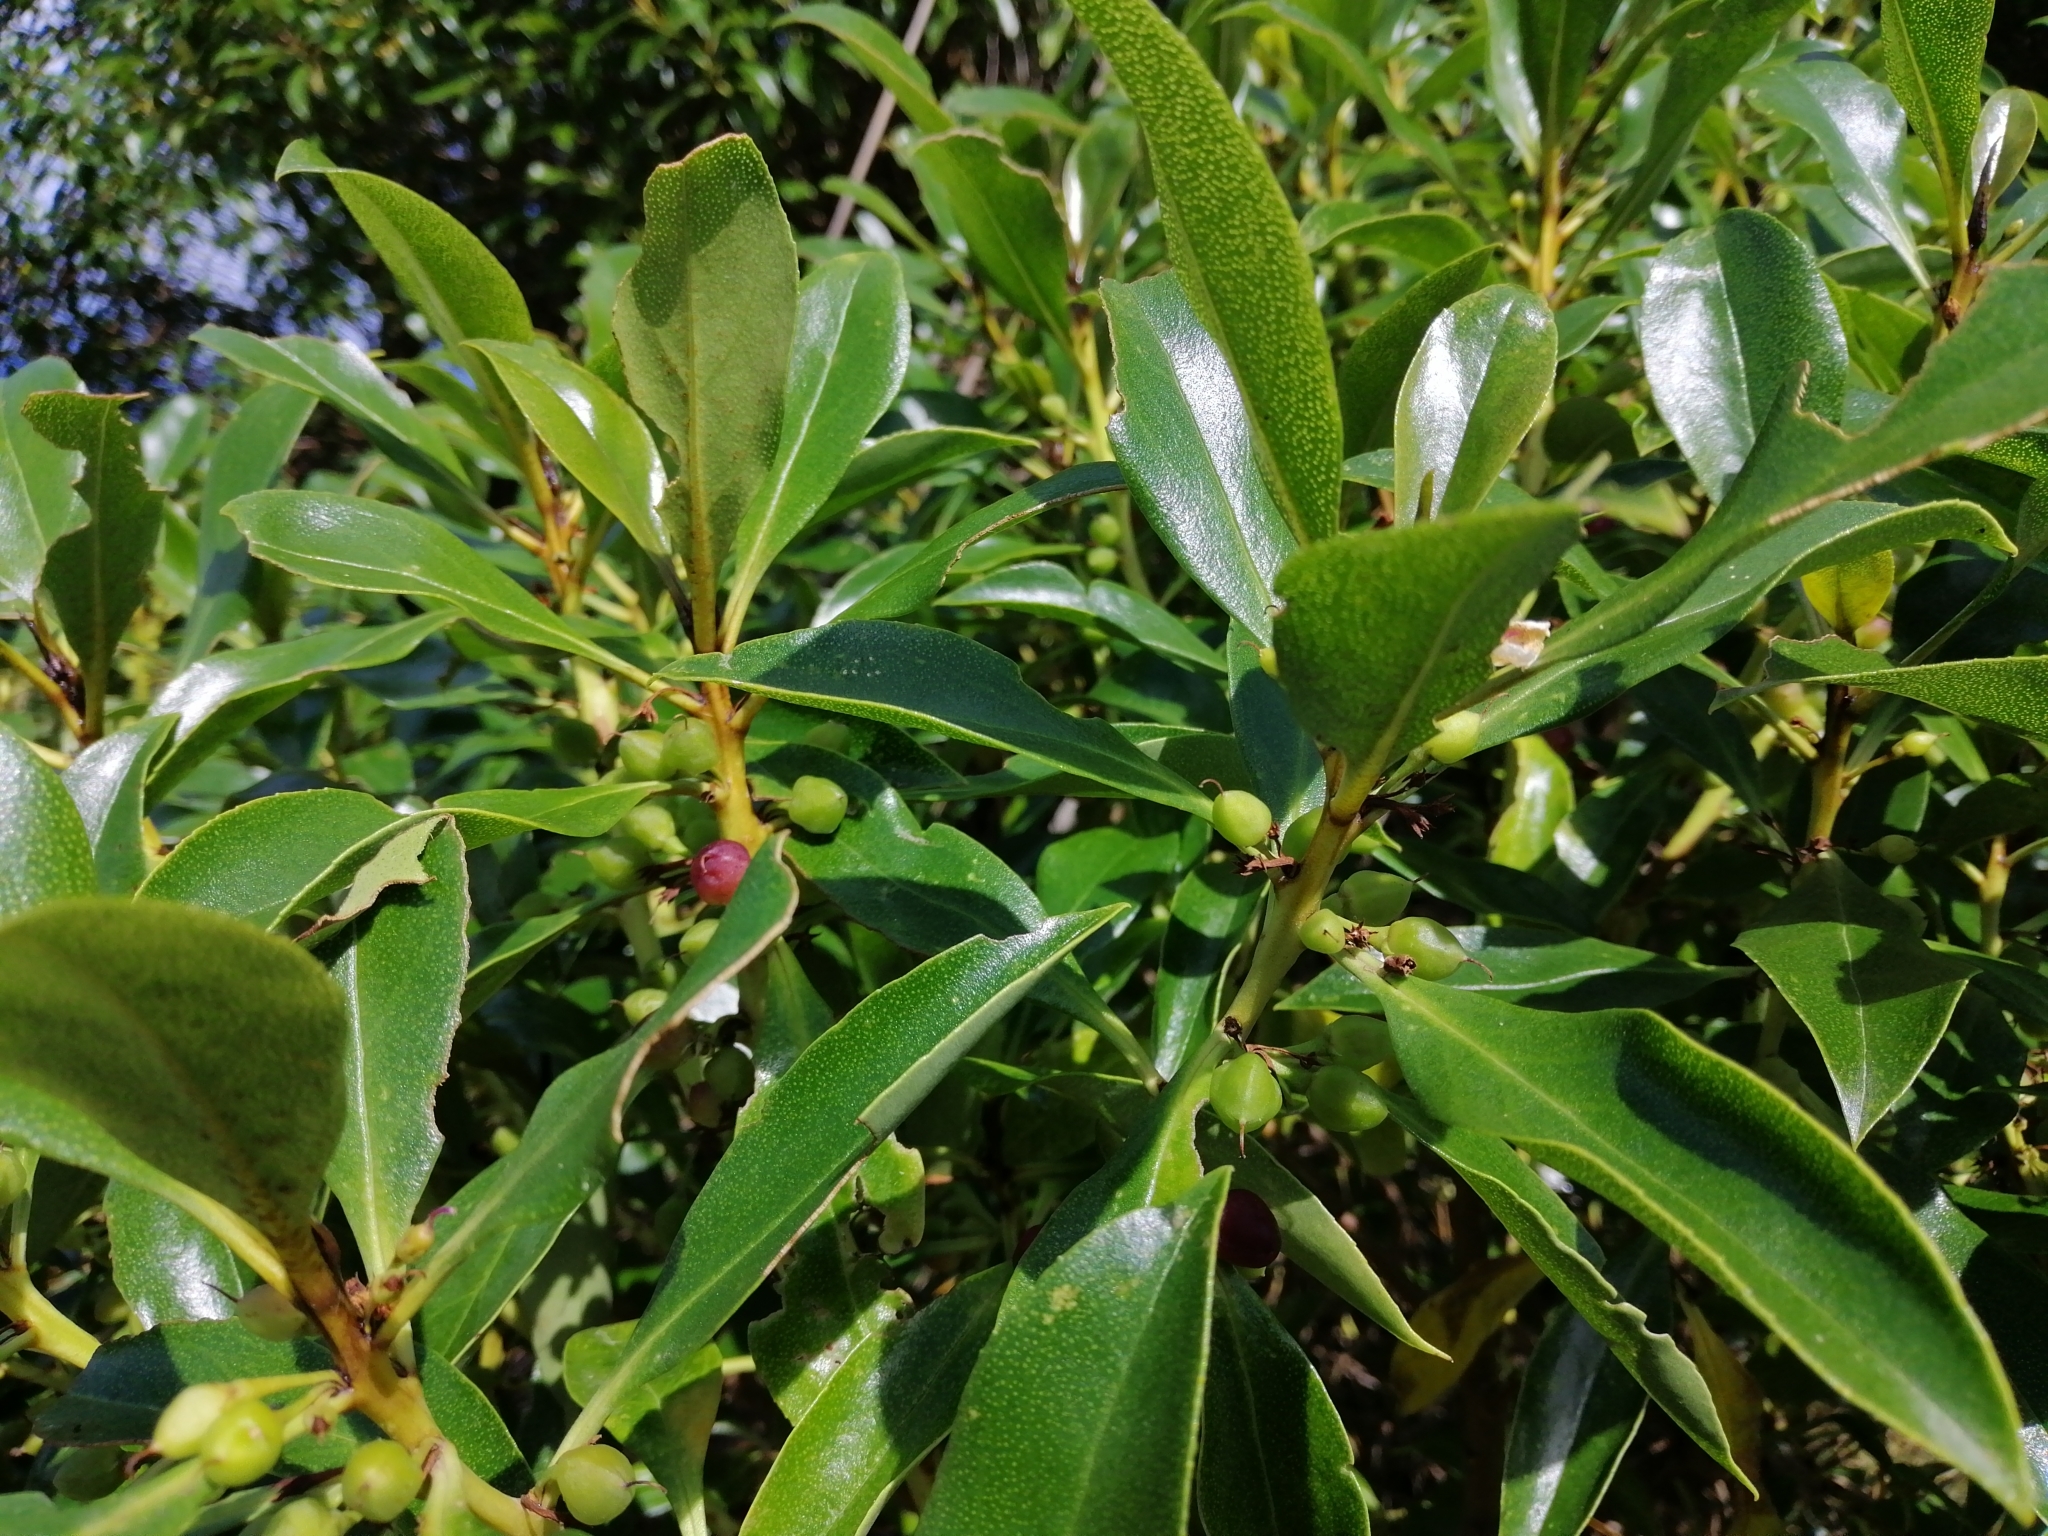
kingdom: Plantae
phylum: Tracheophyta
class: Magnoliopsida
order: Lamiales
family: Scrophulariaceae
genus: Myoporum
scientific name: Myoporum
